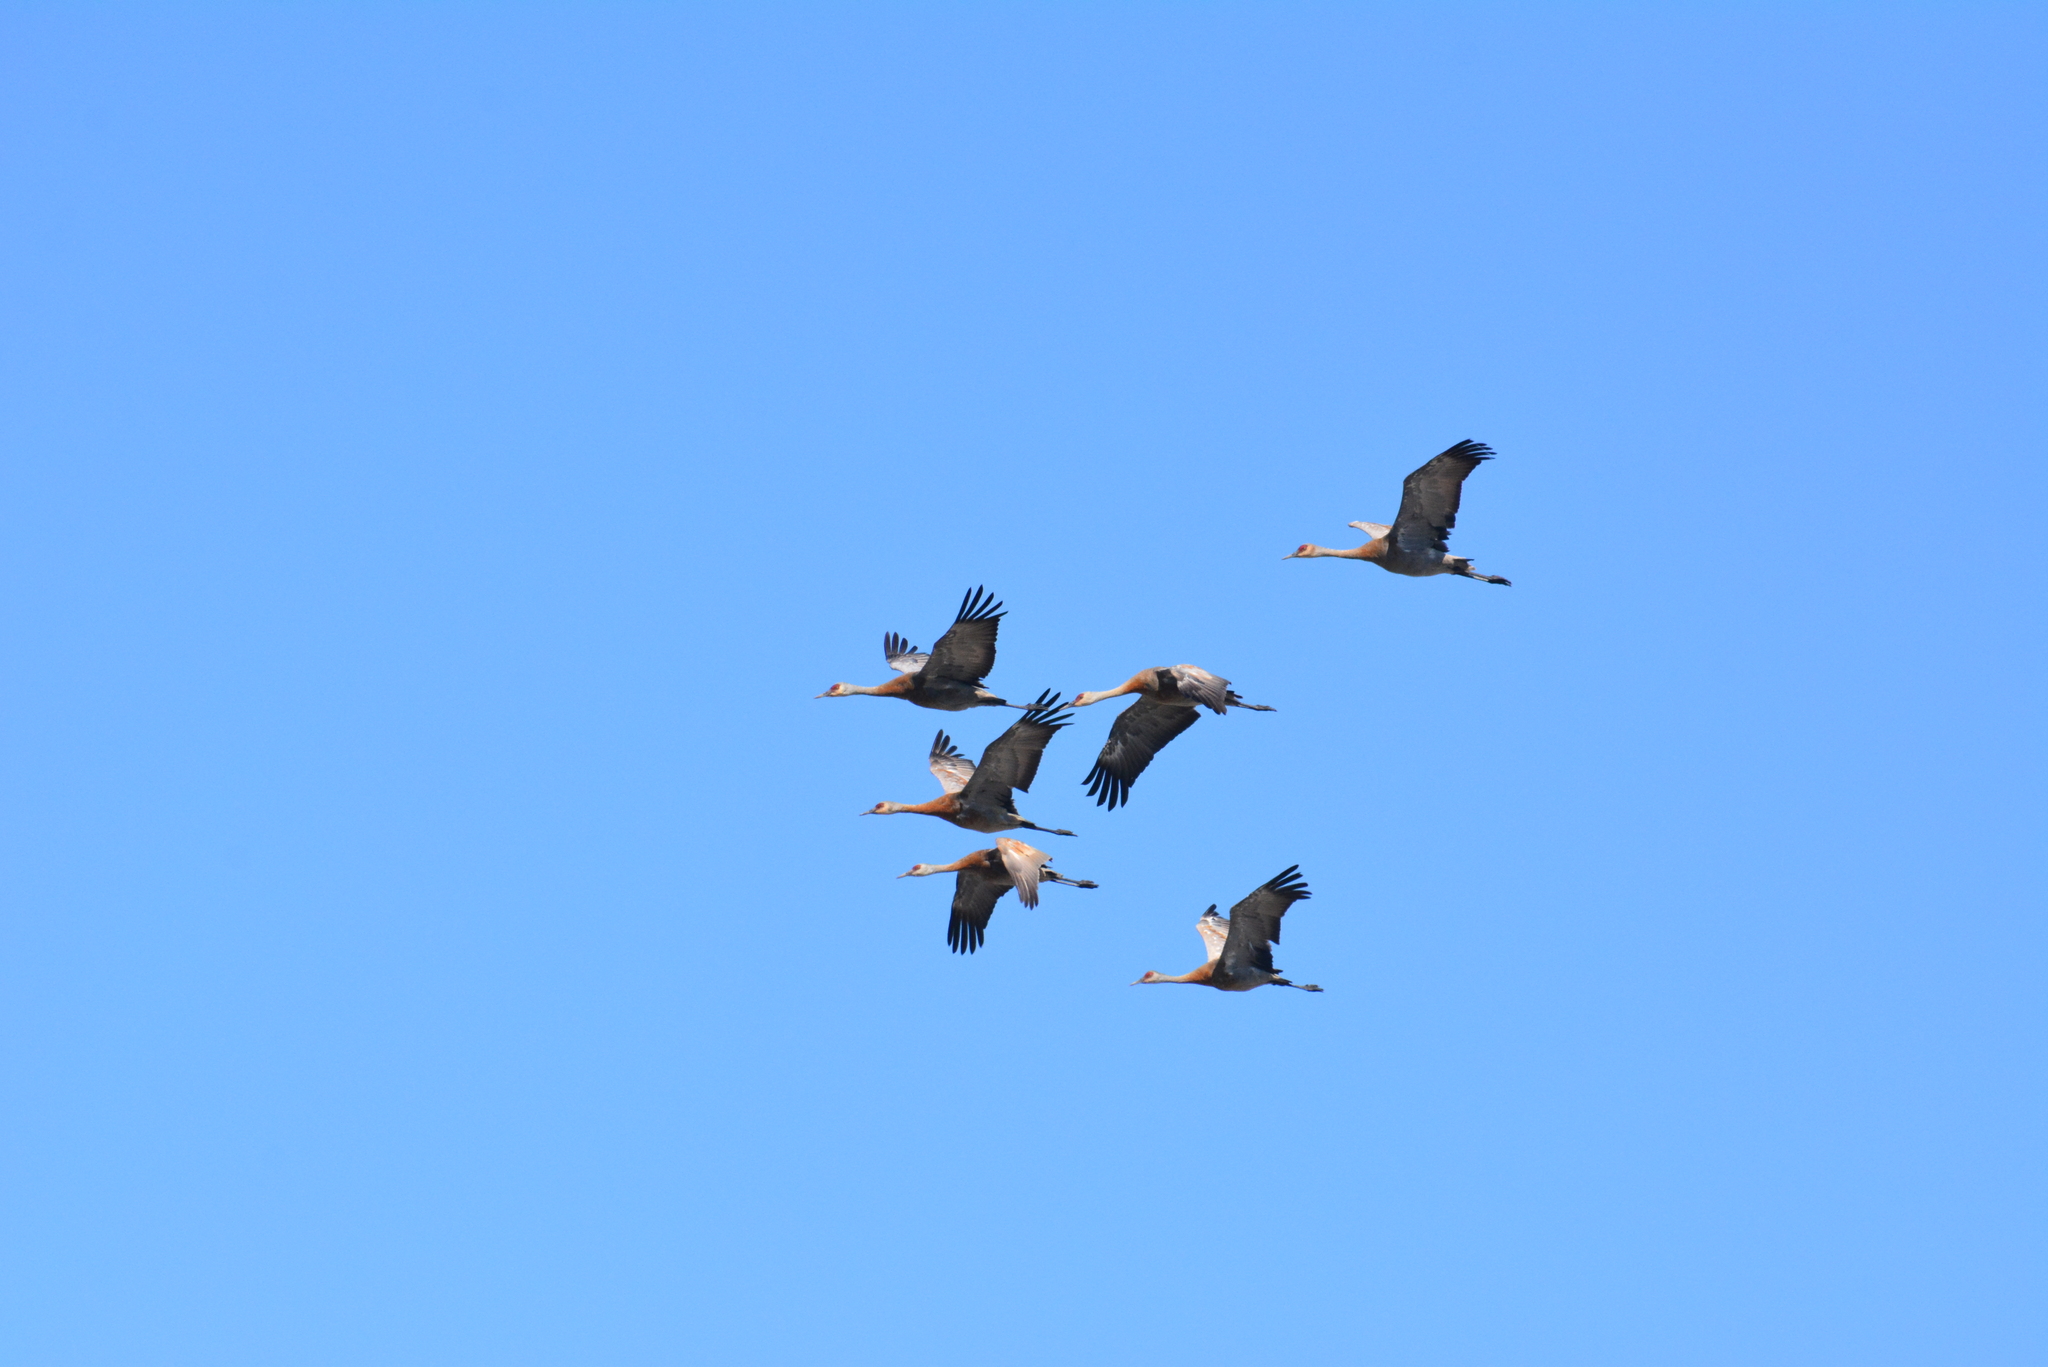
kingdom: Animalia
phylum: Chordata
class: Aves
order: Gruiformes
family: Gruidae
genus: Grus
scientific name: Grus canadensis
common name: Sandhill crane
